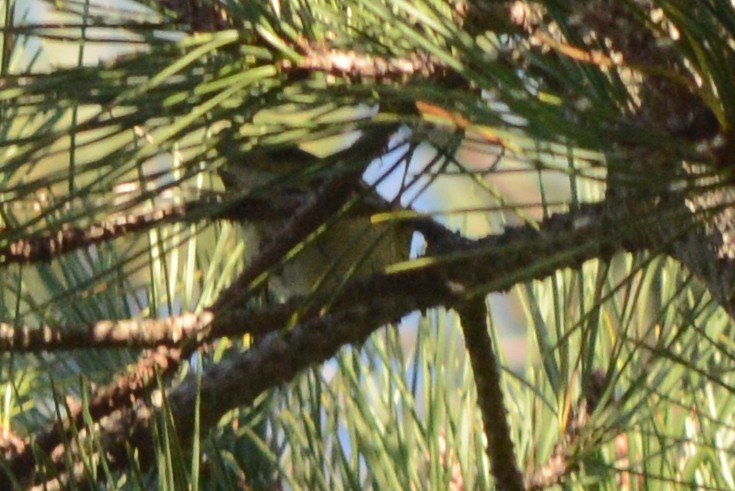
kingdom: Animalia
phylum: Chordata
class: Aves
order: Passeriformes
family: Regulidae
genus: Regulus
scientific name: Regulus calendula
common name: Ruby-crowned kinglet
